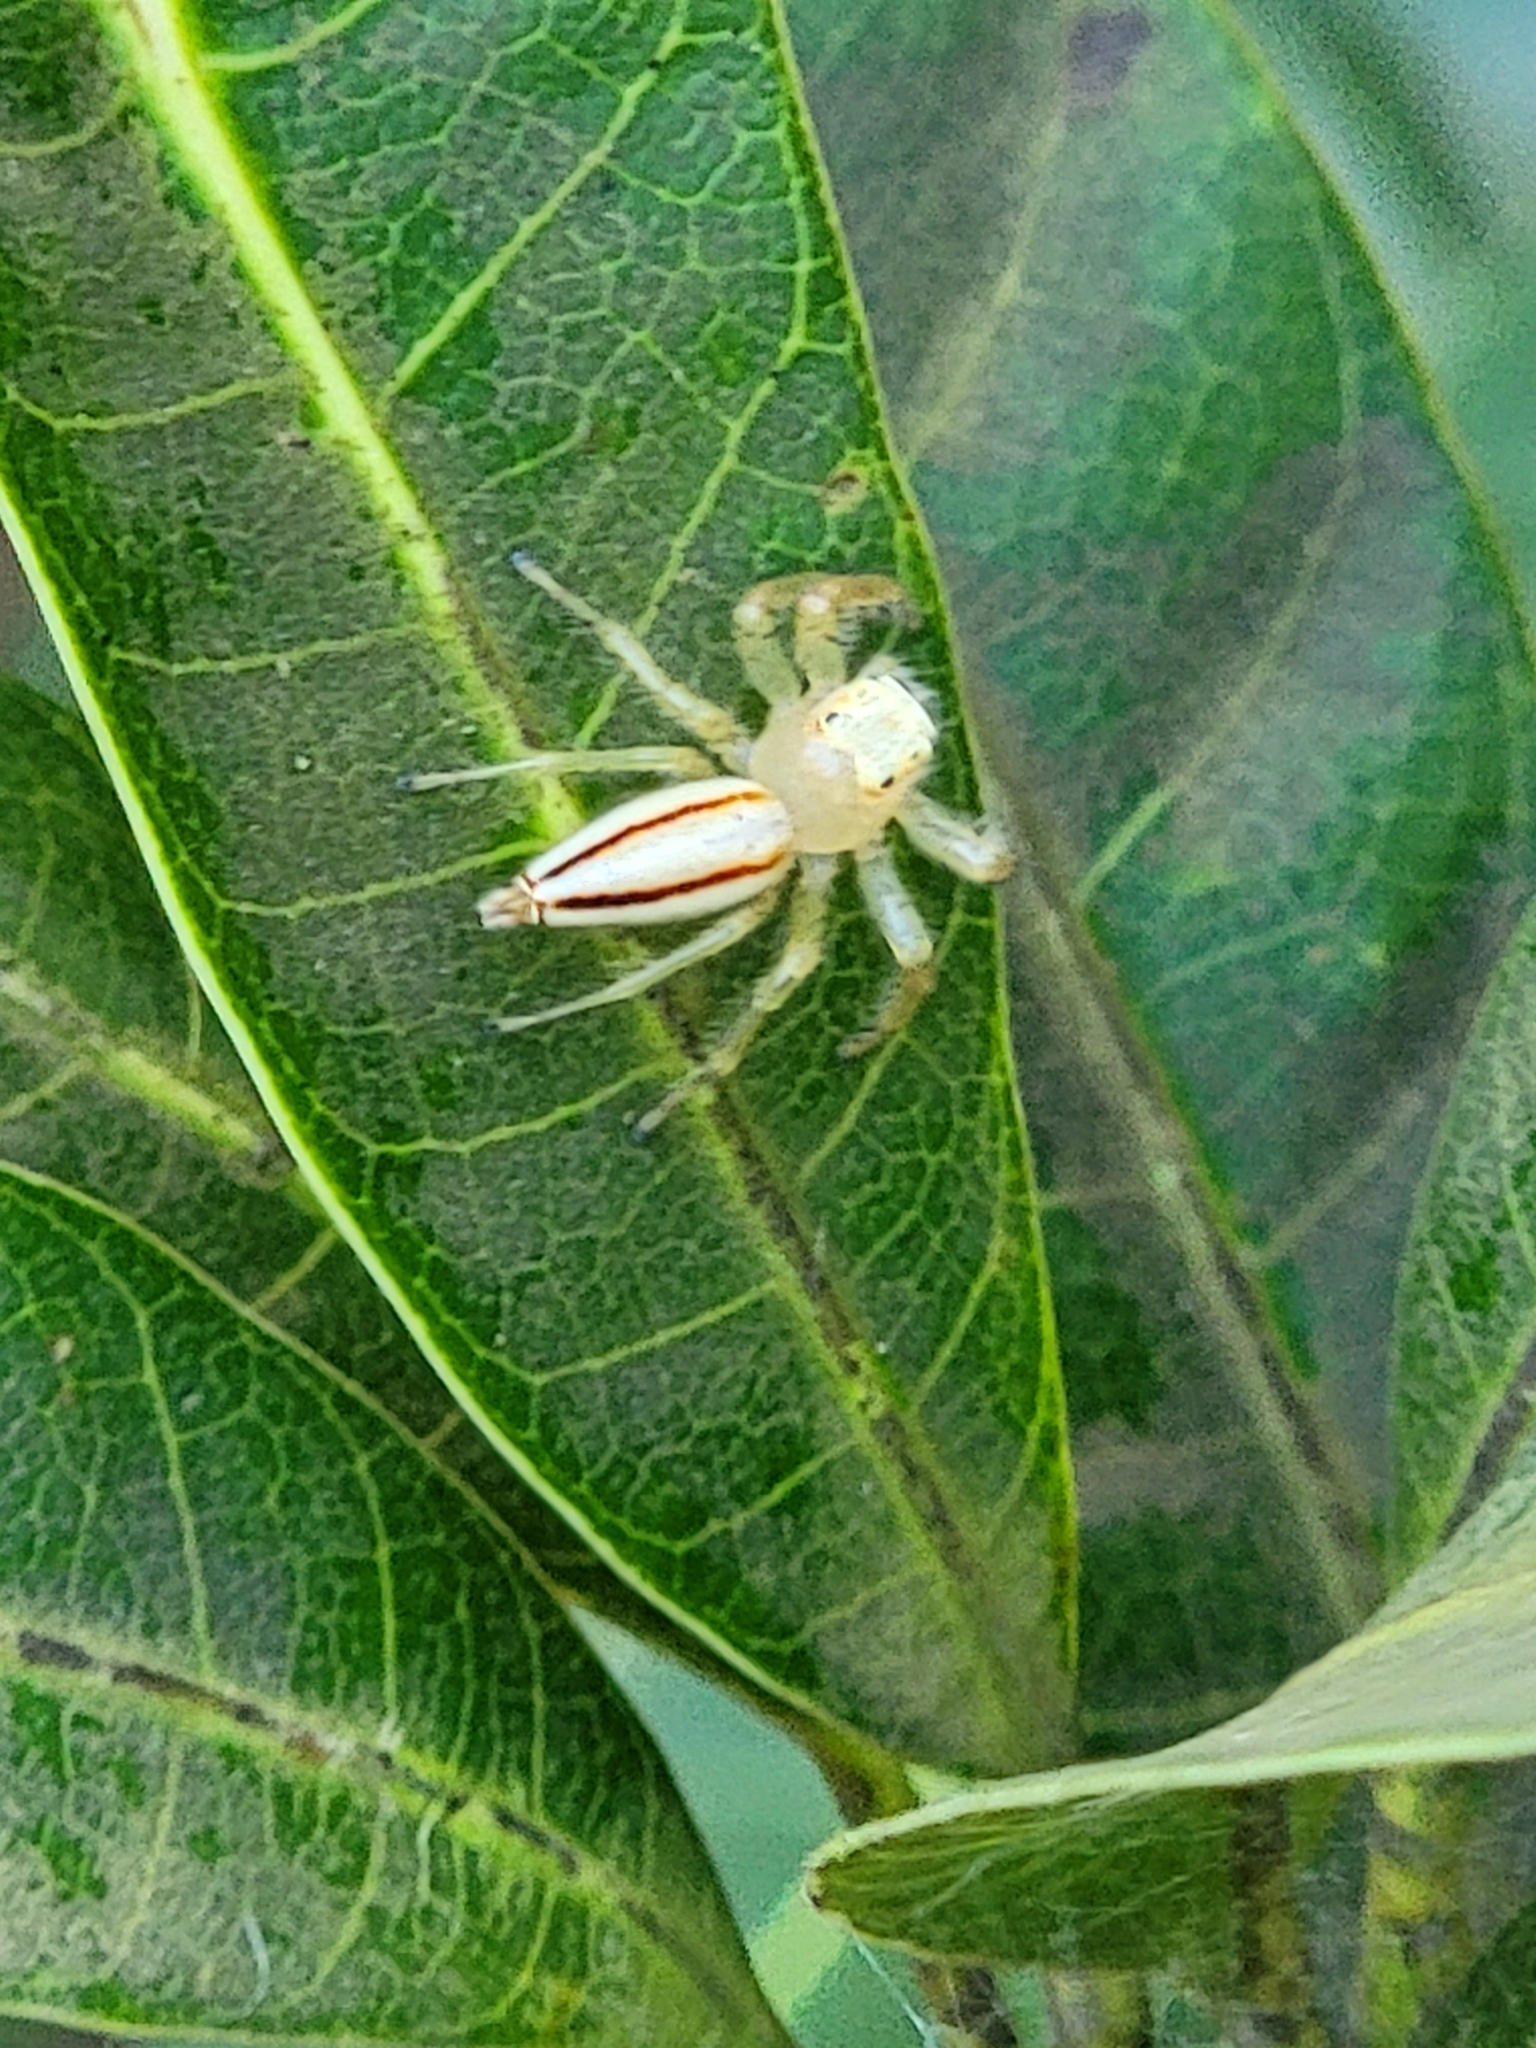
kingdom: Animalia
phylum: Arthropoda
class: Arachnida
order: Araneae
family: Salticidae
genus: Telamonia
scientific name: Telamonia dimidiata
